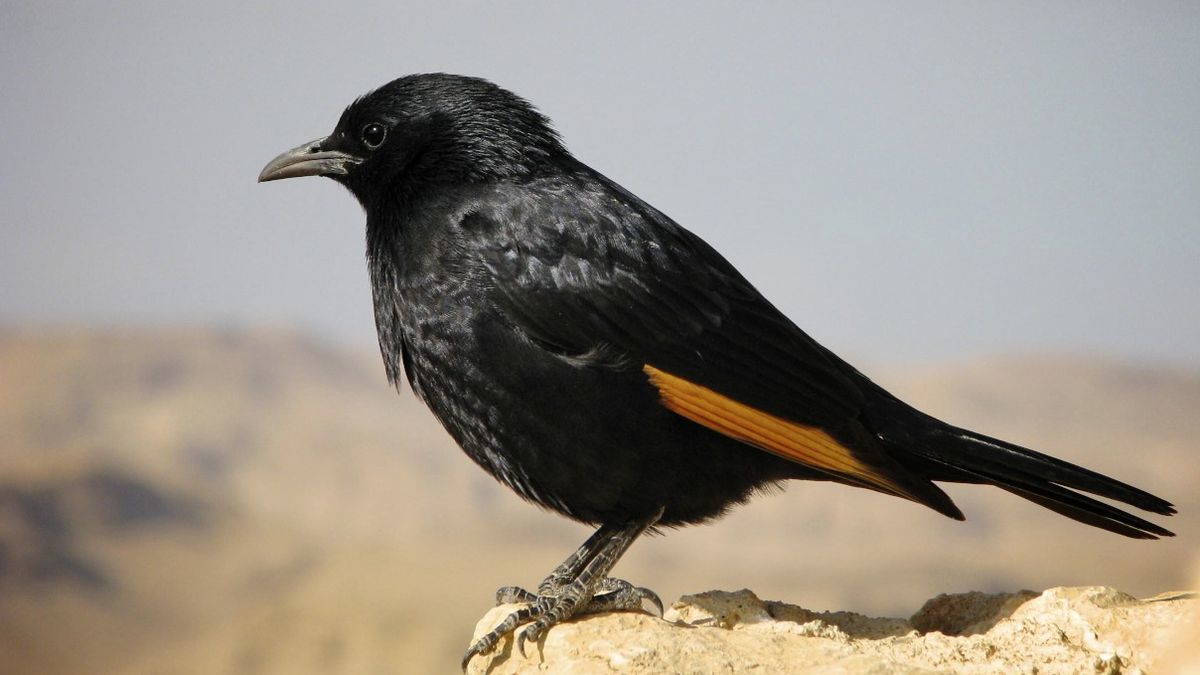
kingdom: Animalia
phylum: Chordata
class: Aves
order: Passeriformes
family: Sturnidae
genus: Onychognathus
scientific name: Onychognathus tristramii
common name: Tristram's starling
